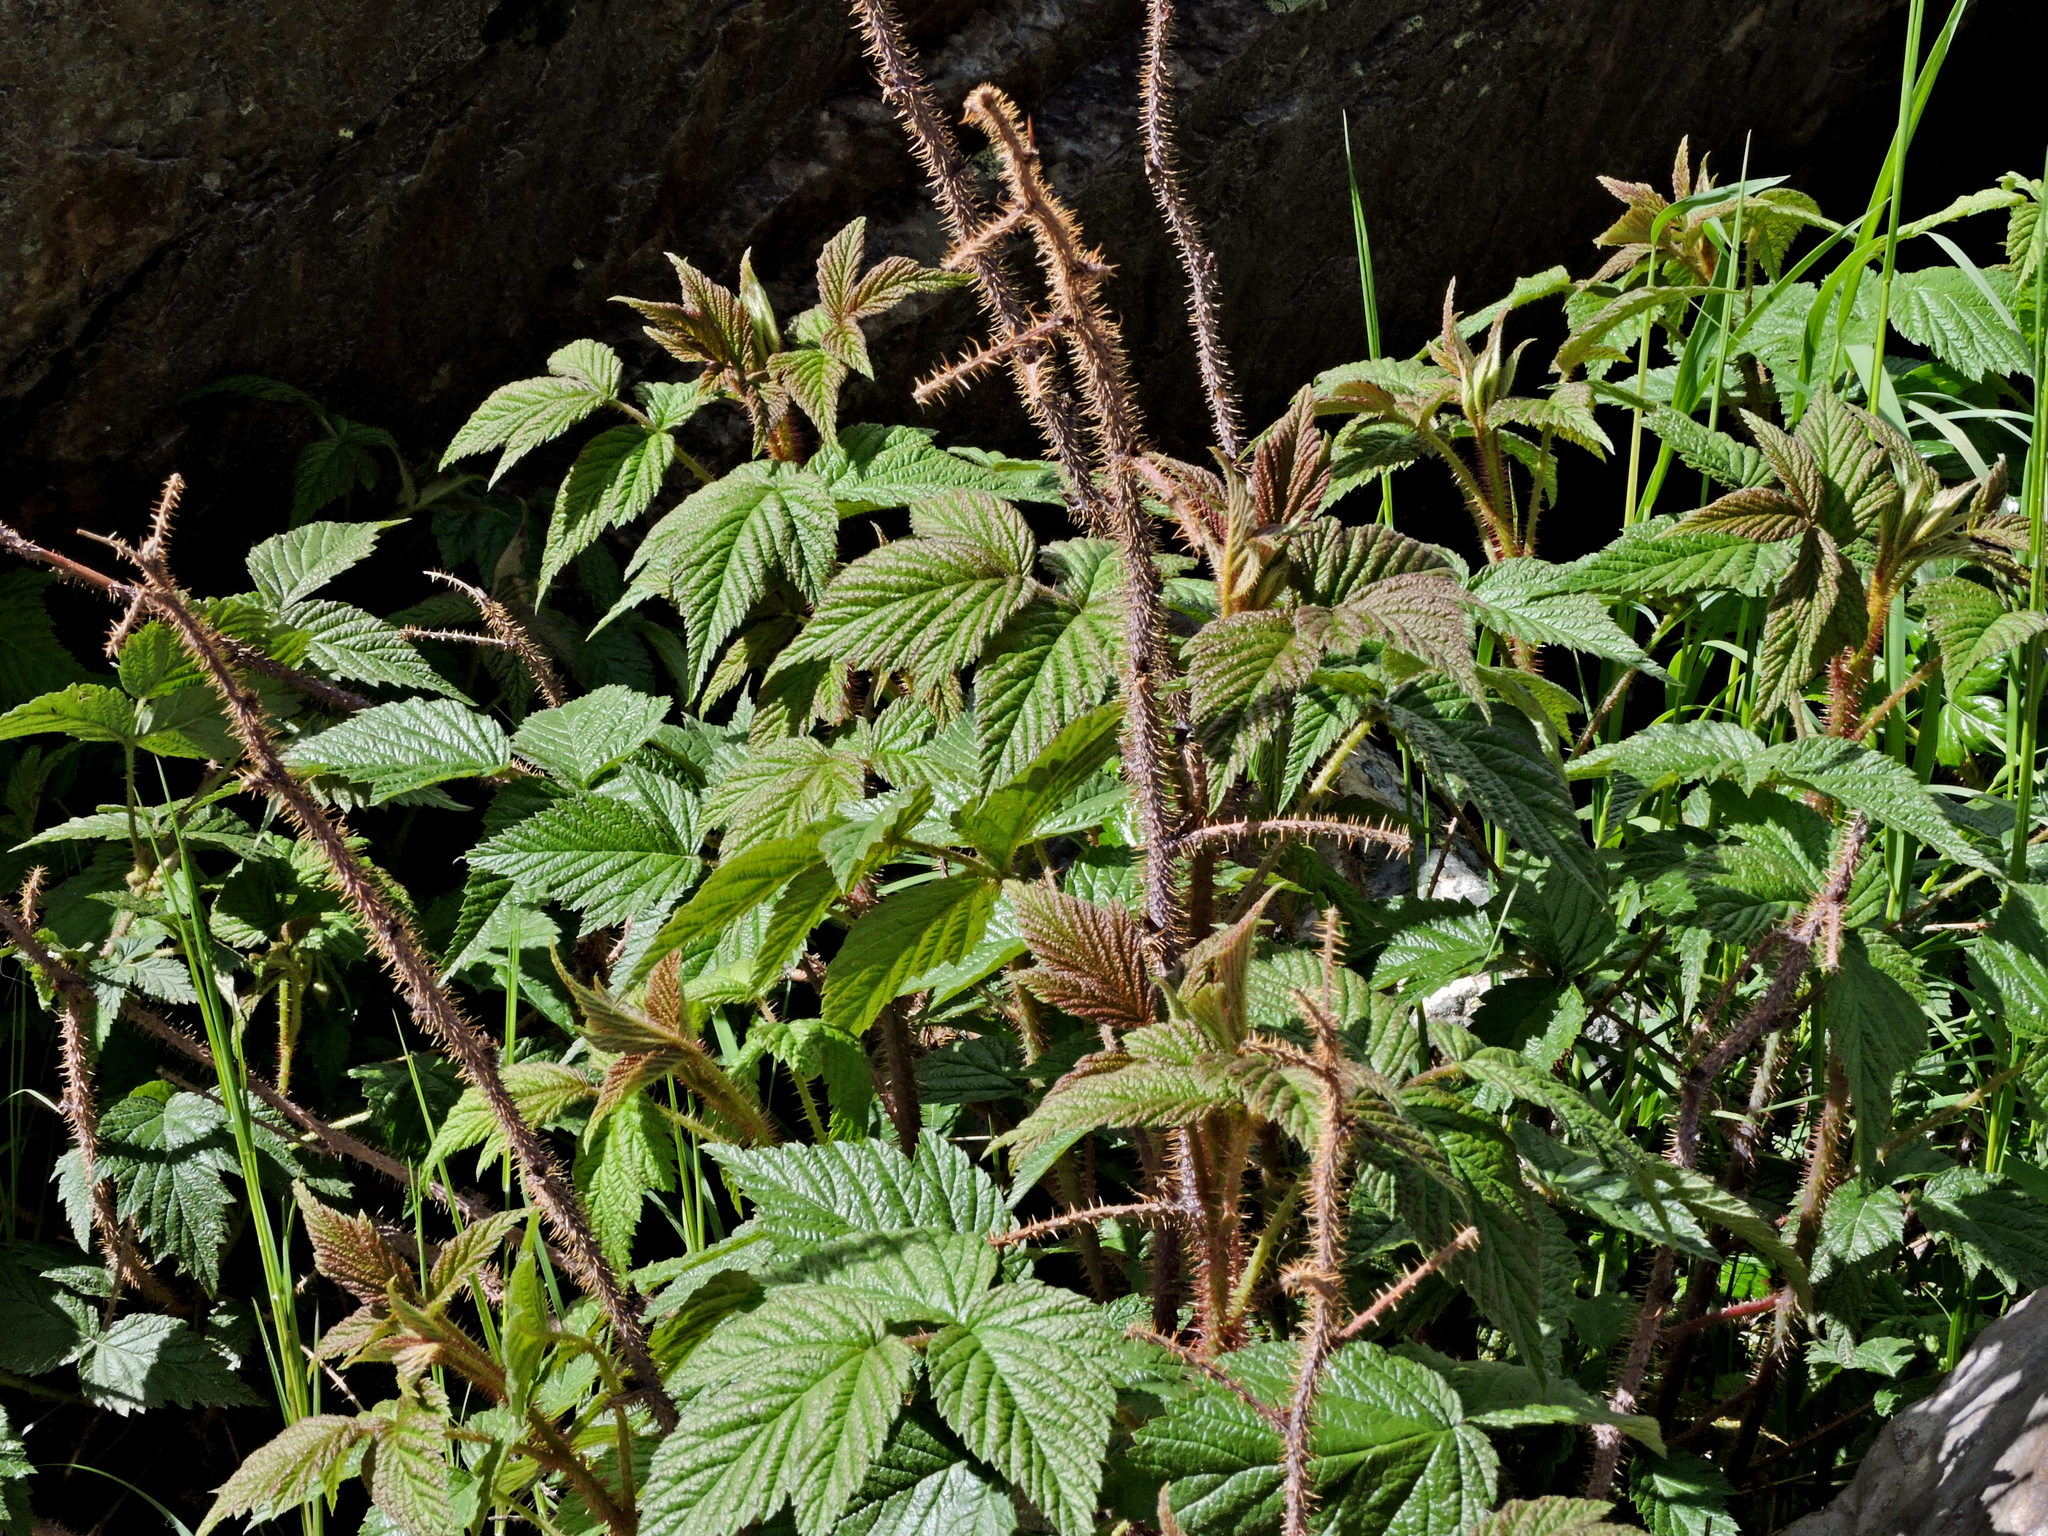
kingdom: Plantae
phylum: Tracheophyta
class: Magnoliopsida
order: Rosales
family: Rosaceae
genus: Rubus
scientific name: Rubus idaeus
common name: Raspberry
